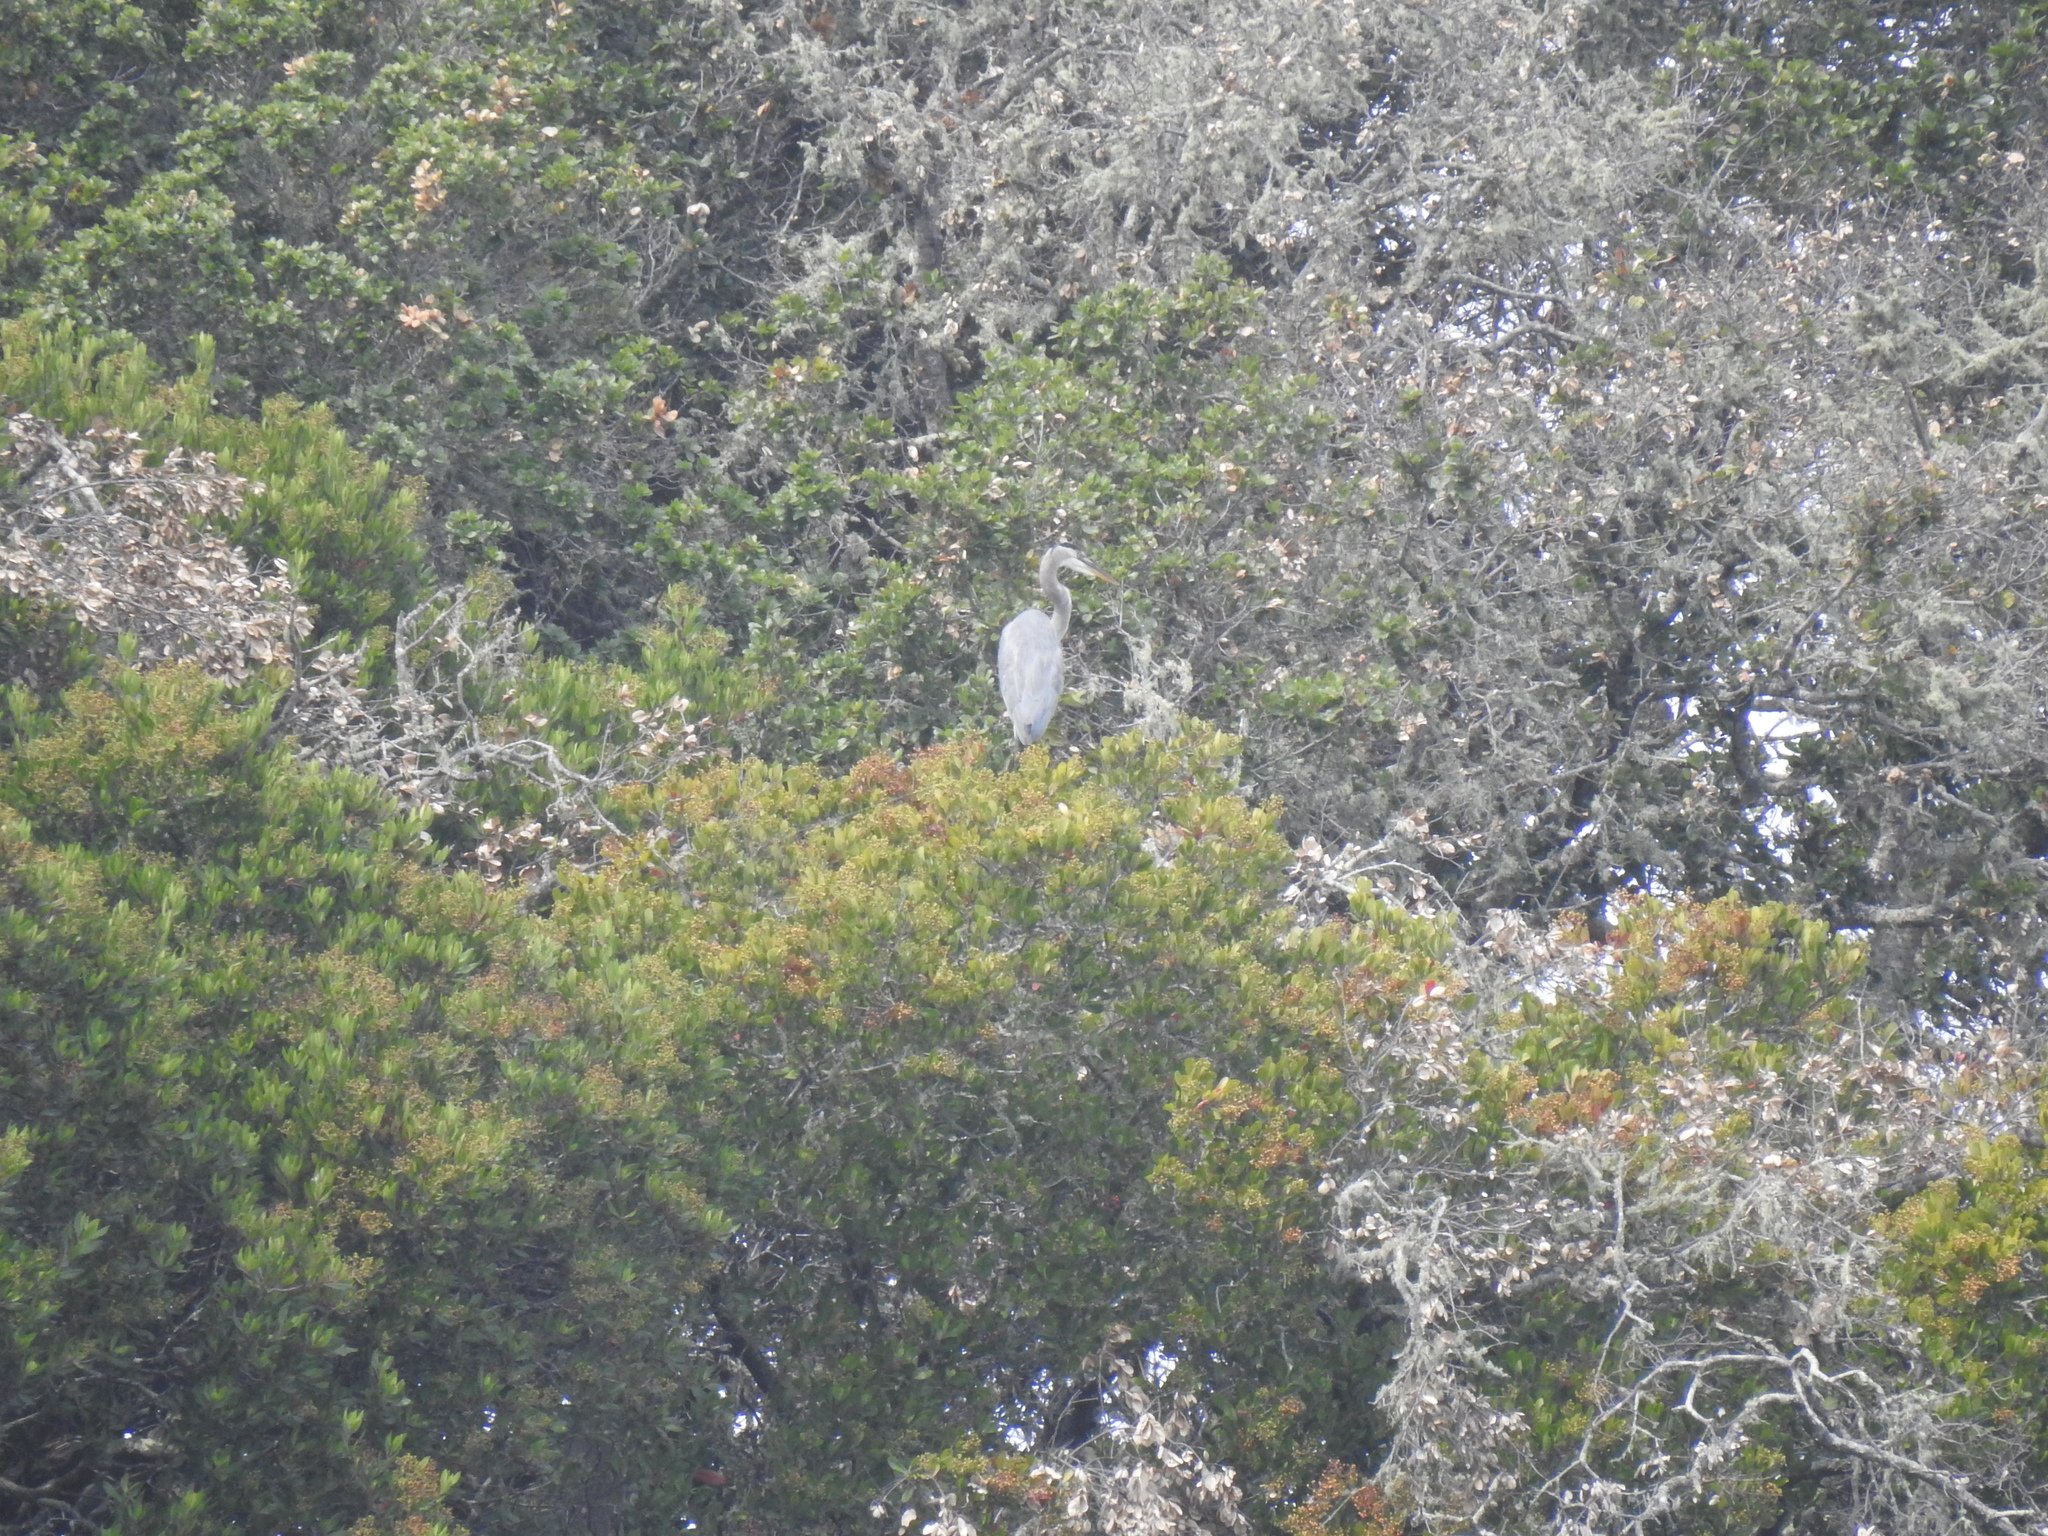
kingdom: Animalia
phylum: Chordata
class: Aves
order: Pelecaniformes
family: Ardeidae
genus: Ardea
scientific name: Ardea herodias
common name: Great blue heron
